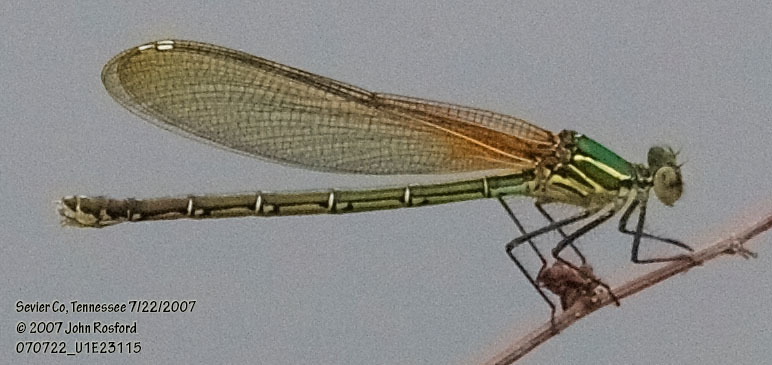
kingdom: Animalia
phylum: Arthropoda
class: Insecta
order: Odonata
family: Calopterygidae
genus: Hetaerina
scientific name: Hetaerina americana
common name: American rubyspot
